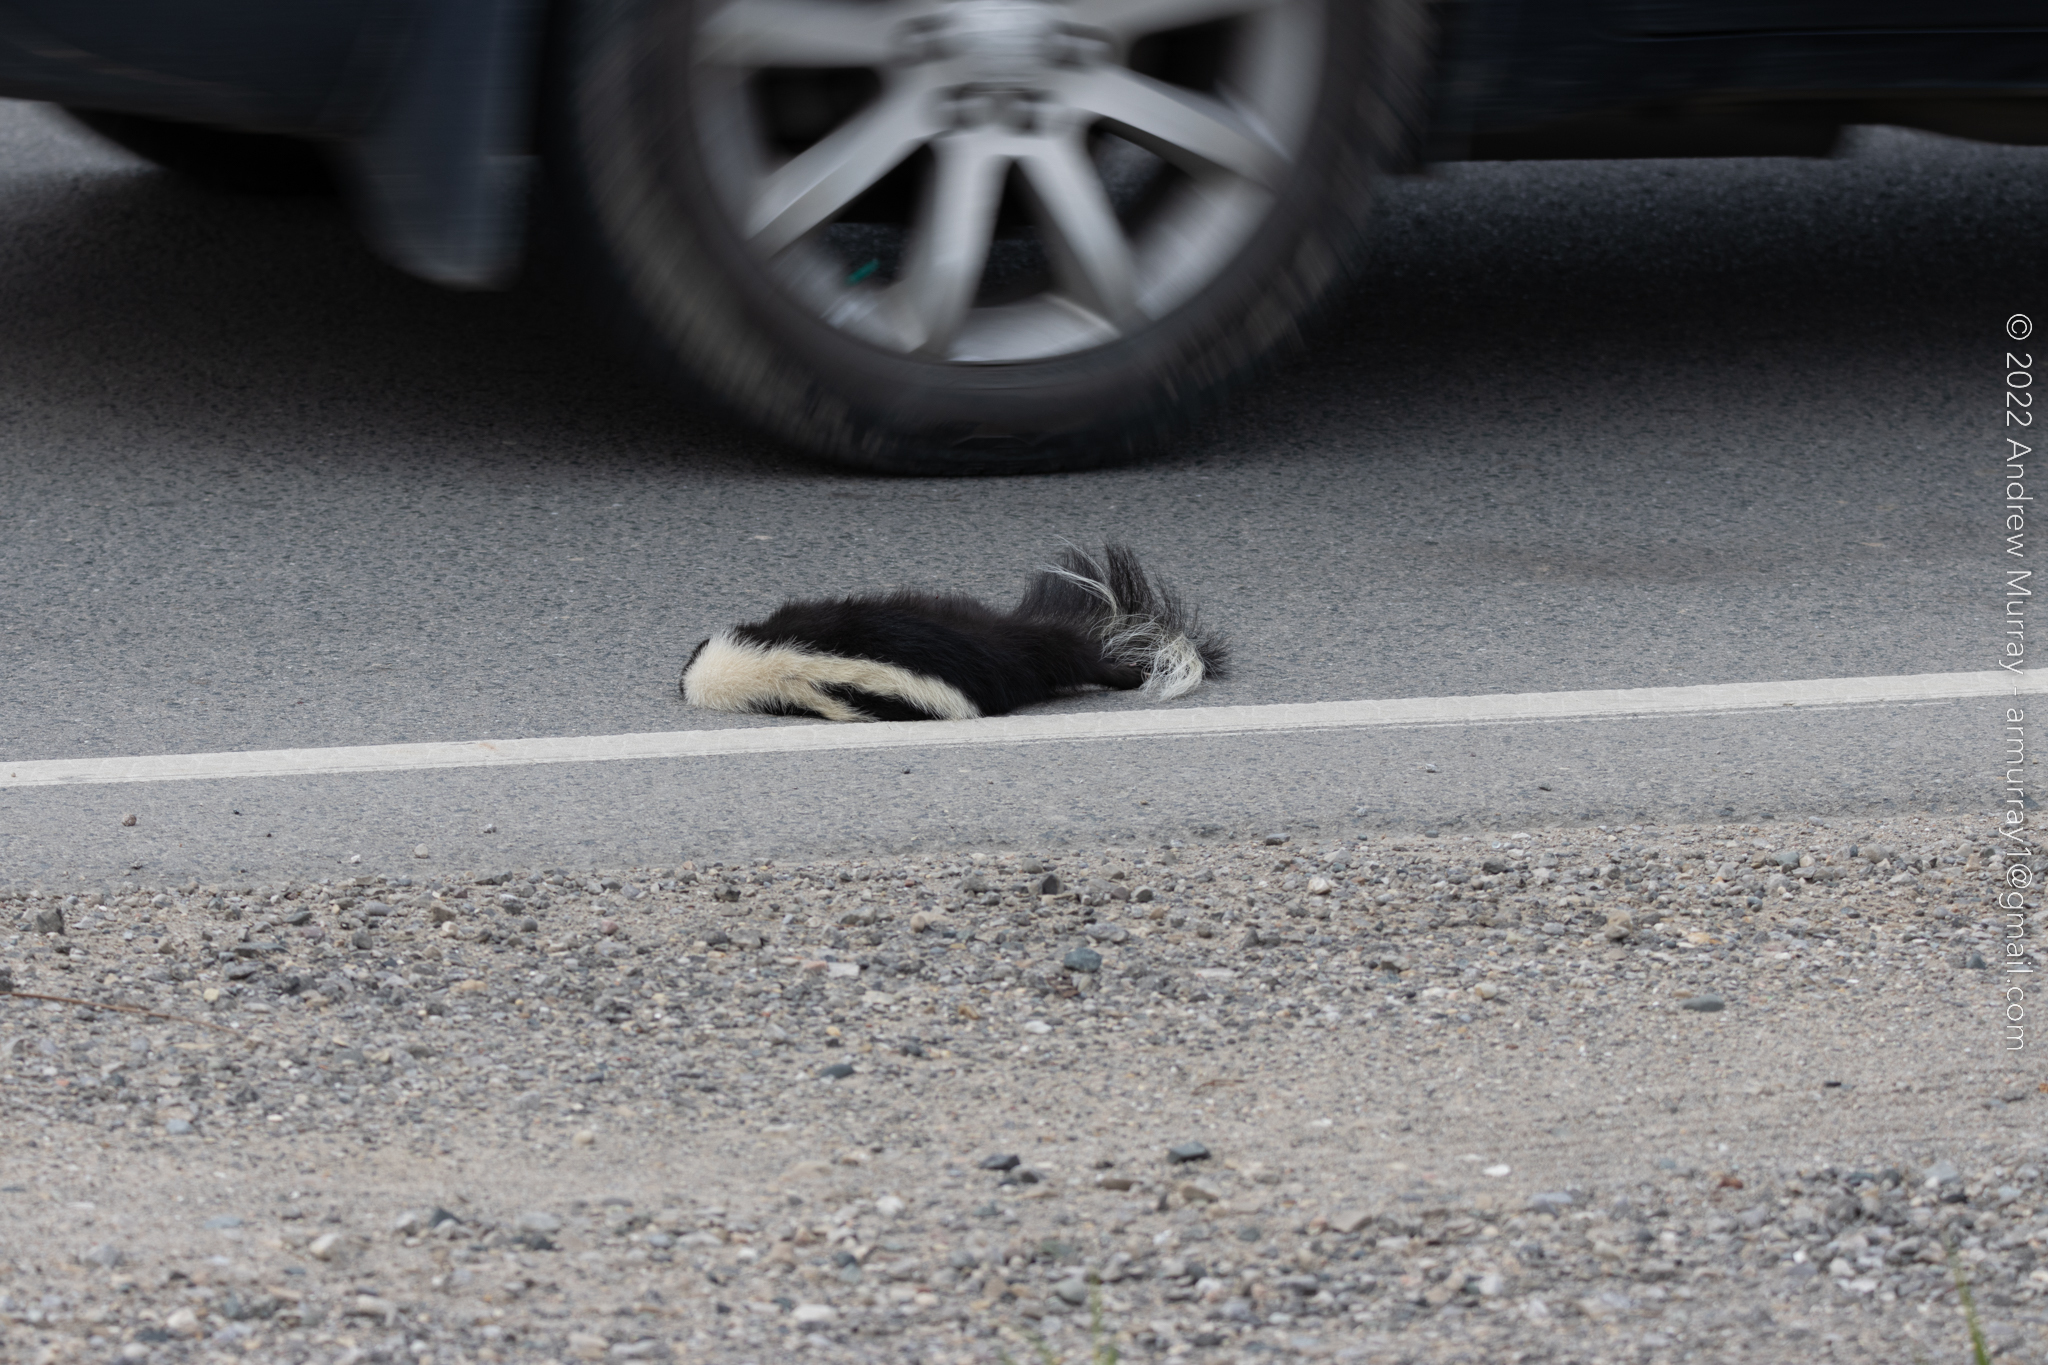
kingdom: Animalia
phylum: Chordata
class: Mammalia
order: Carnivora
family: Mephitidae
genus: Mephitis
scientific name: Mephitis mephitis
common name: Striped skunk
